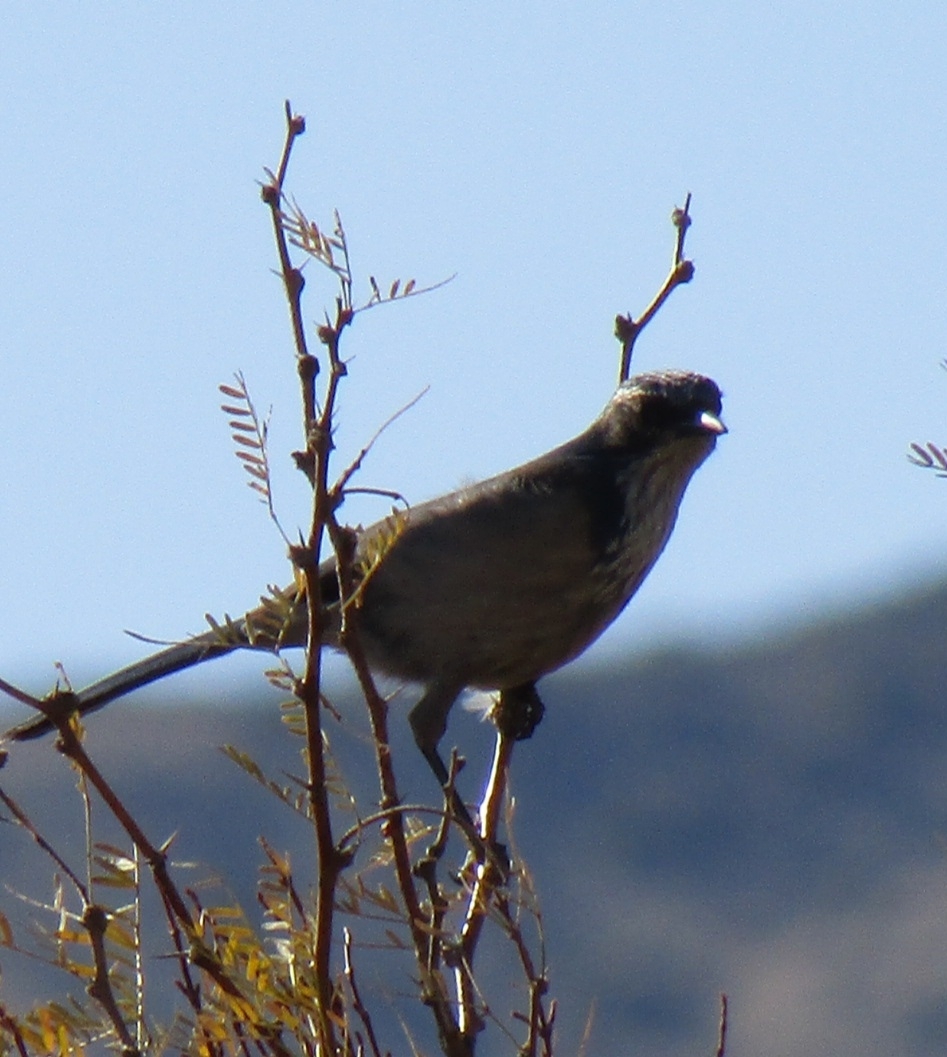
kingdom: Animalia
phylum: Chordata
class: Aves
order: Passeriformes
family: Corvidae
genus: Aphelocoma
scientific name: Aphelocoma californica
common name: California scrub-jay
